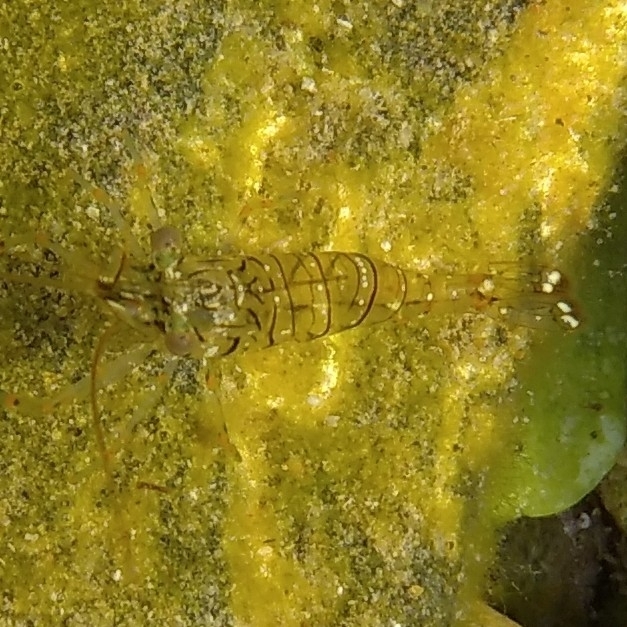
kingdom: Animalia
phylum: Arthropoda
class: Malacostraca
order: Decapoda
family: Palaemonidae
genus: Palaemon
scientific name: Palaemon elegans
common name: Grass prawm
